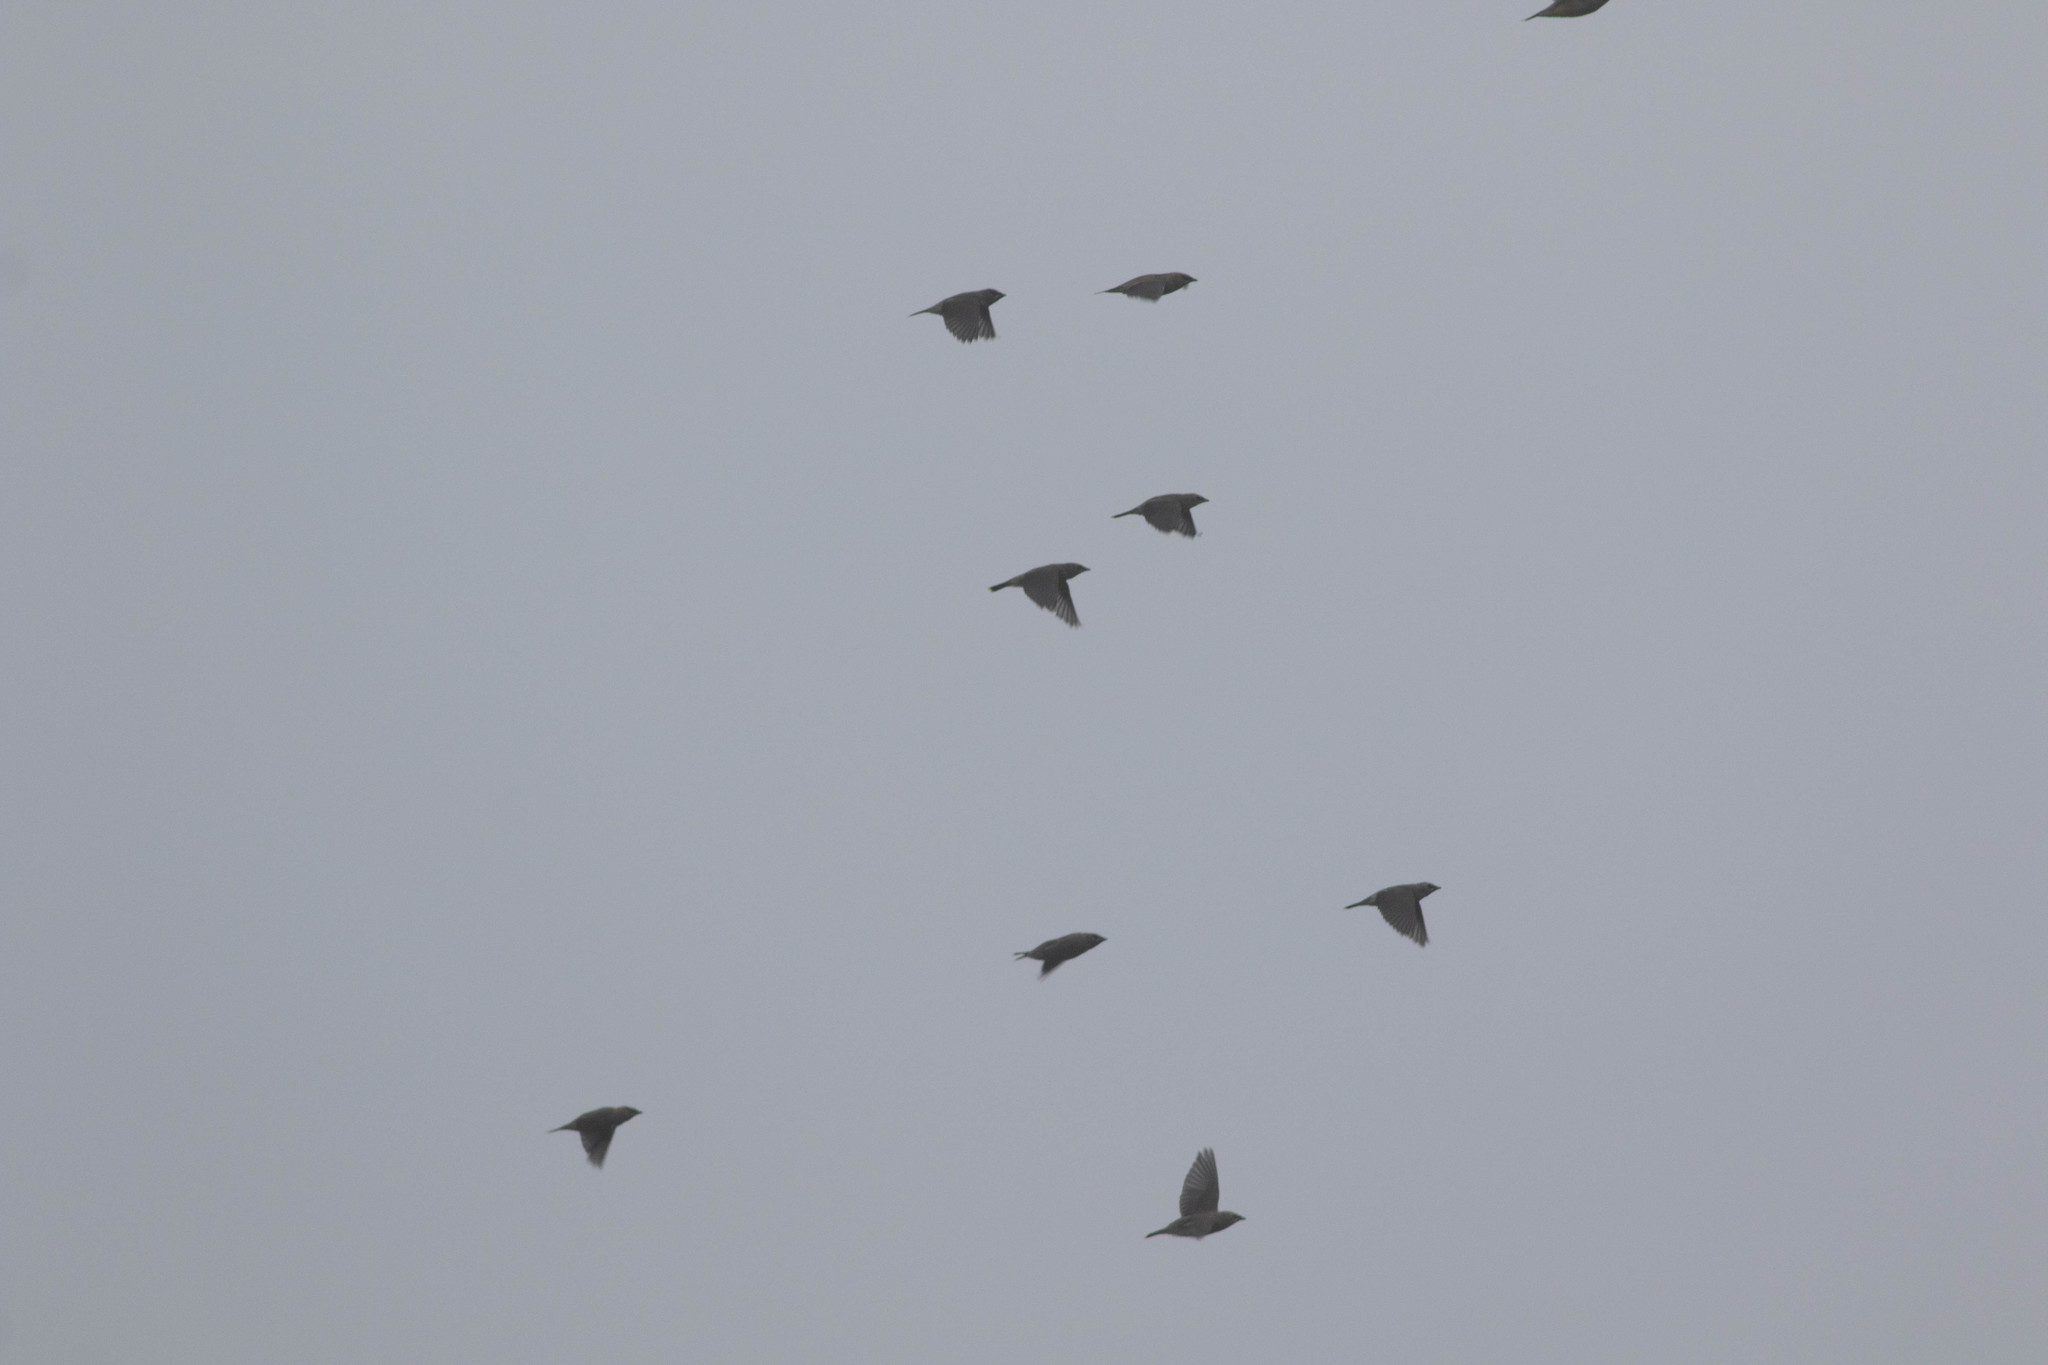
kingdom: Animalia
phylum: Chordata
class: Aves
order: Passeriformes
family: Bombycillidae
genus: Bombycilla
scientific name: Bombycilla cedrorum
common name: Cedar waxwing
